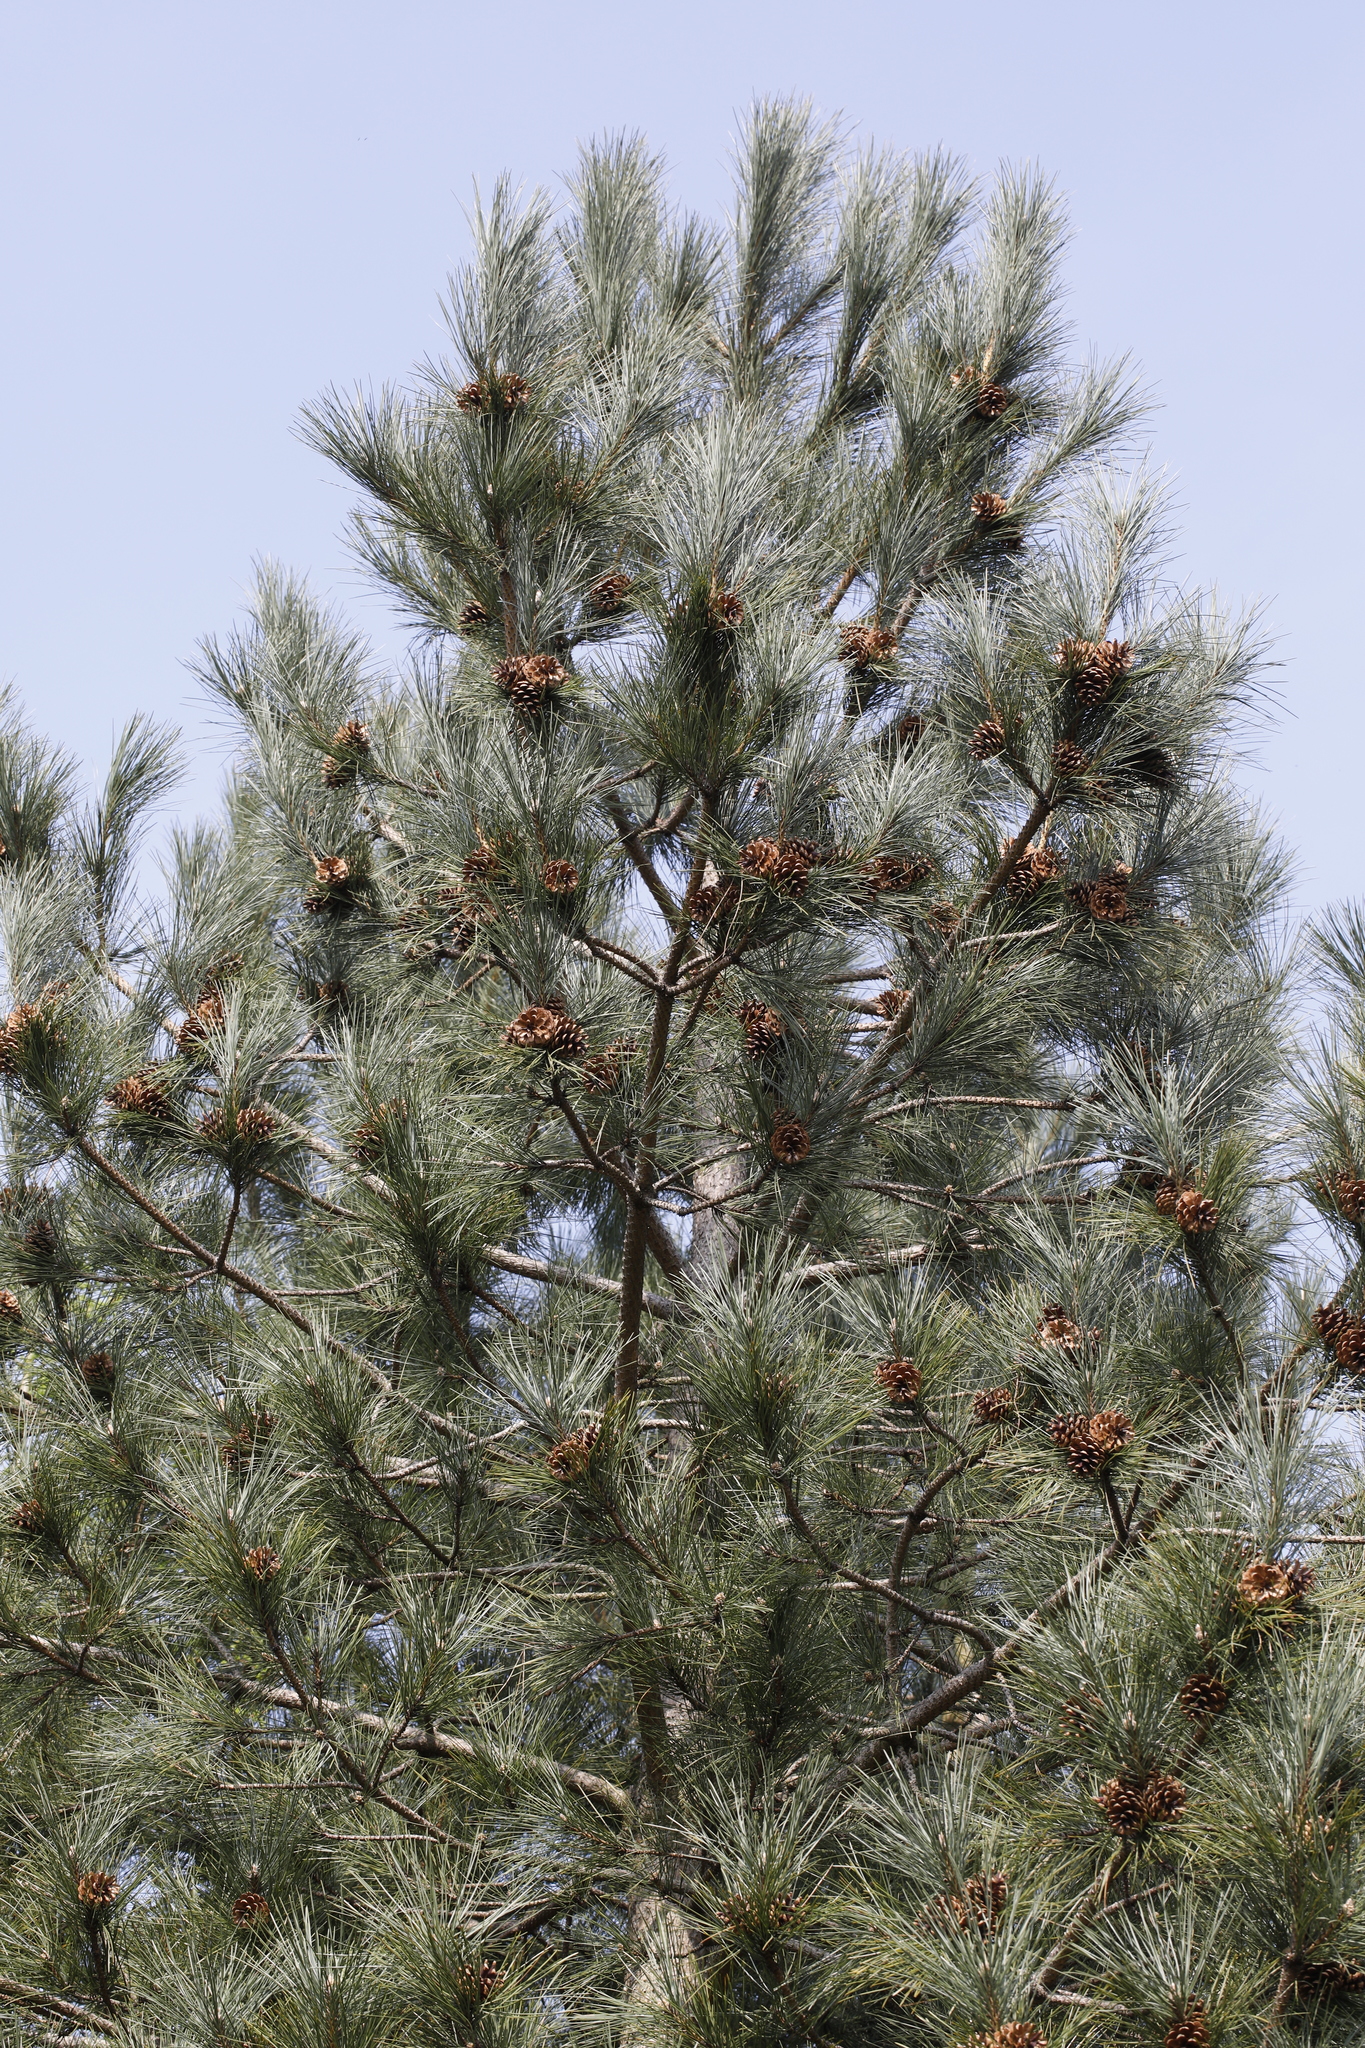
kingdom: Plantae
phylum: Tracheophyta
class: Pinopsida
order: Pinales
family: Pinaceae
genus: Pinus
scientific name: Pinus sylvestris
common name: Scots pine
